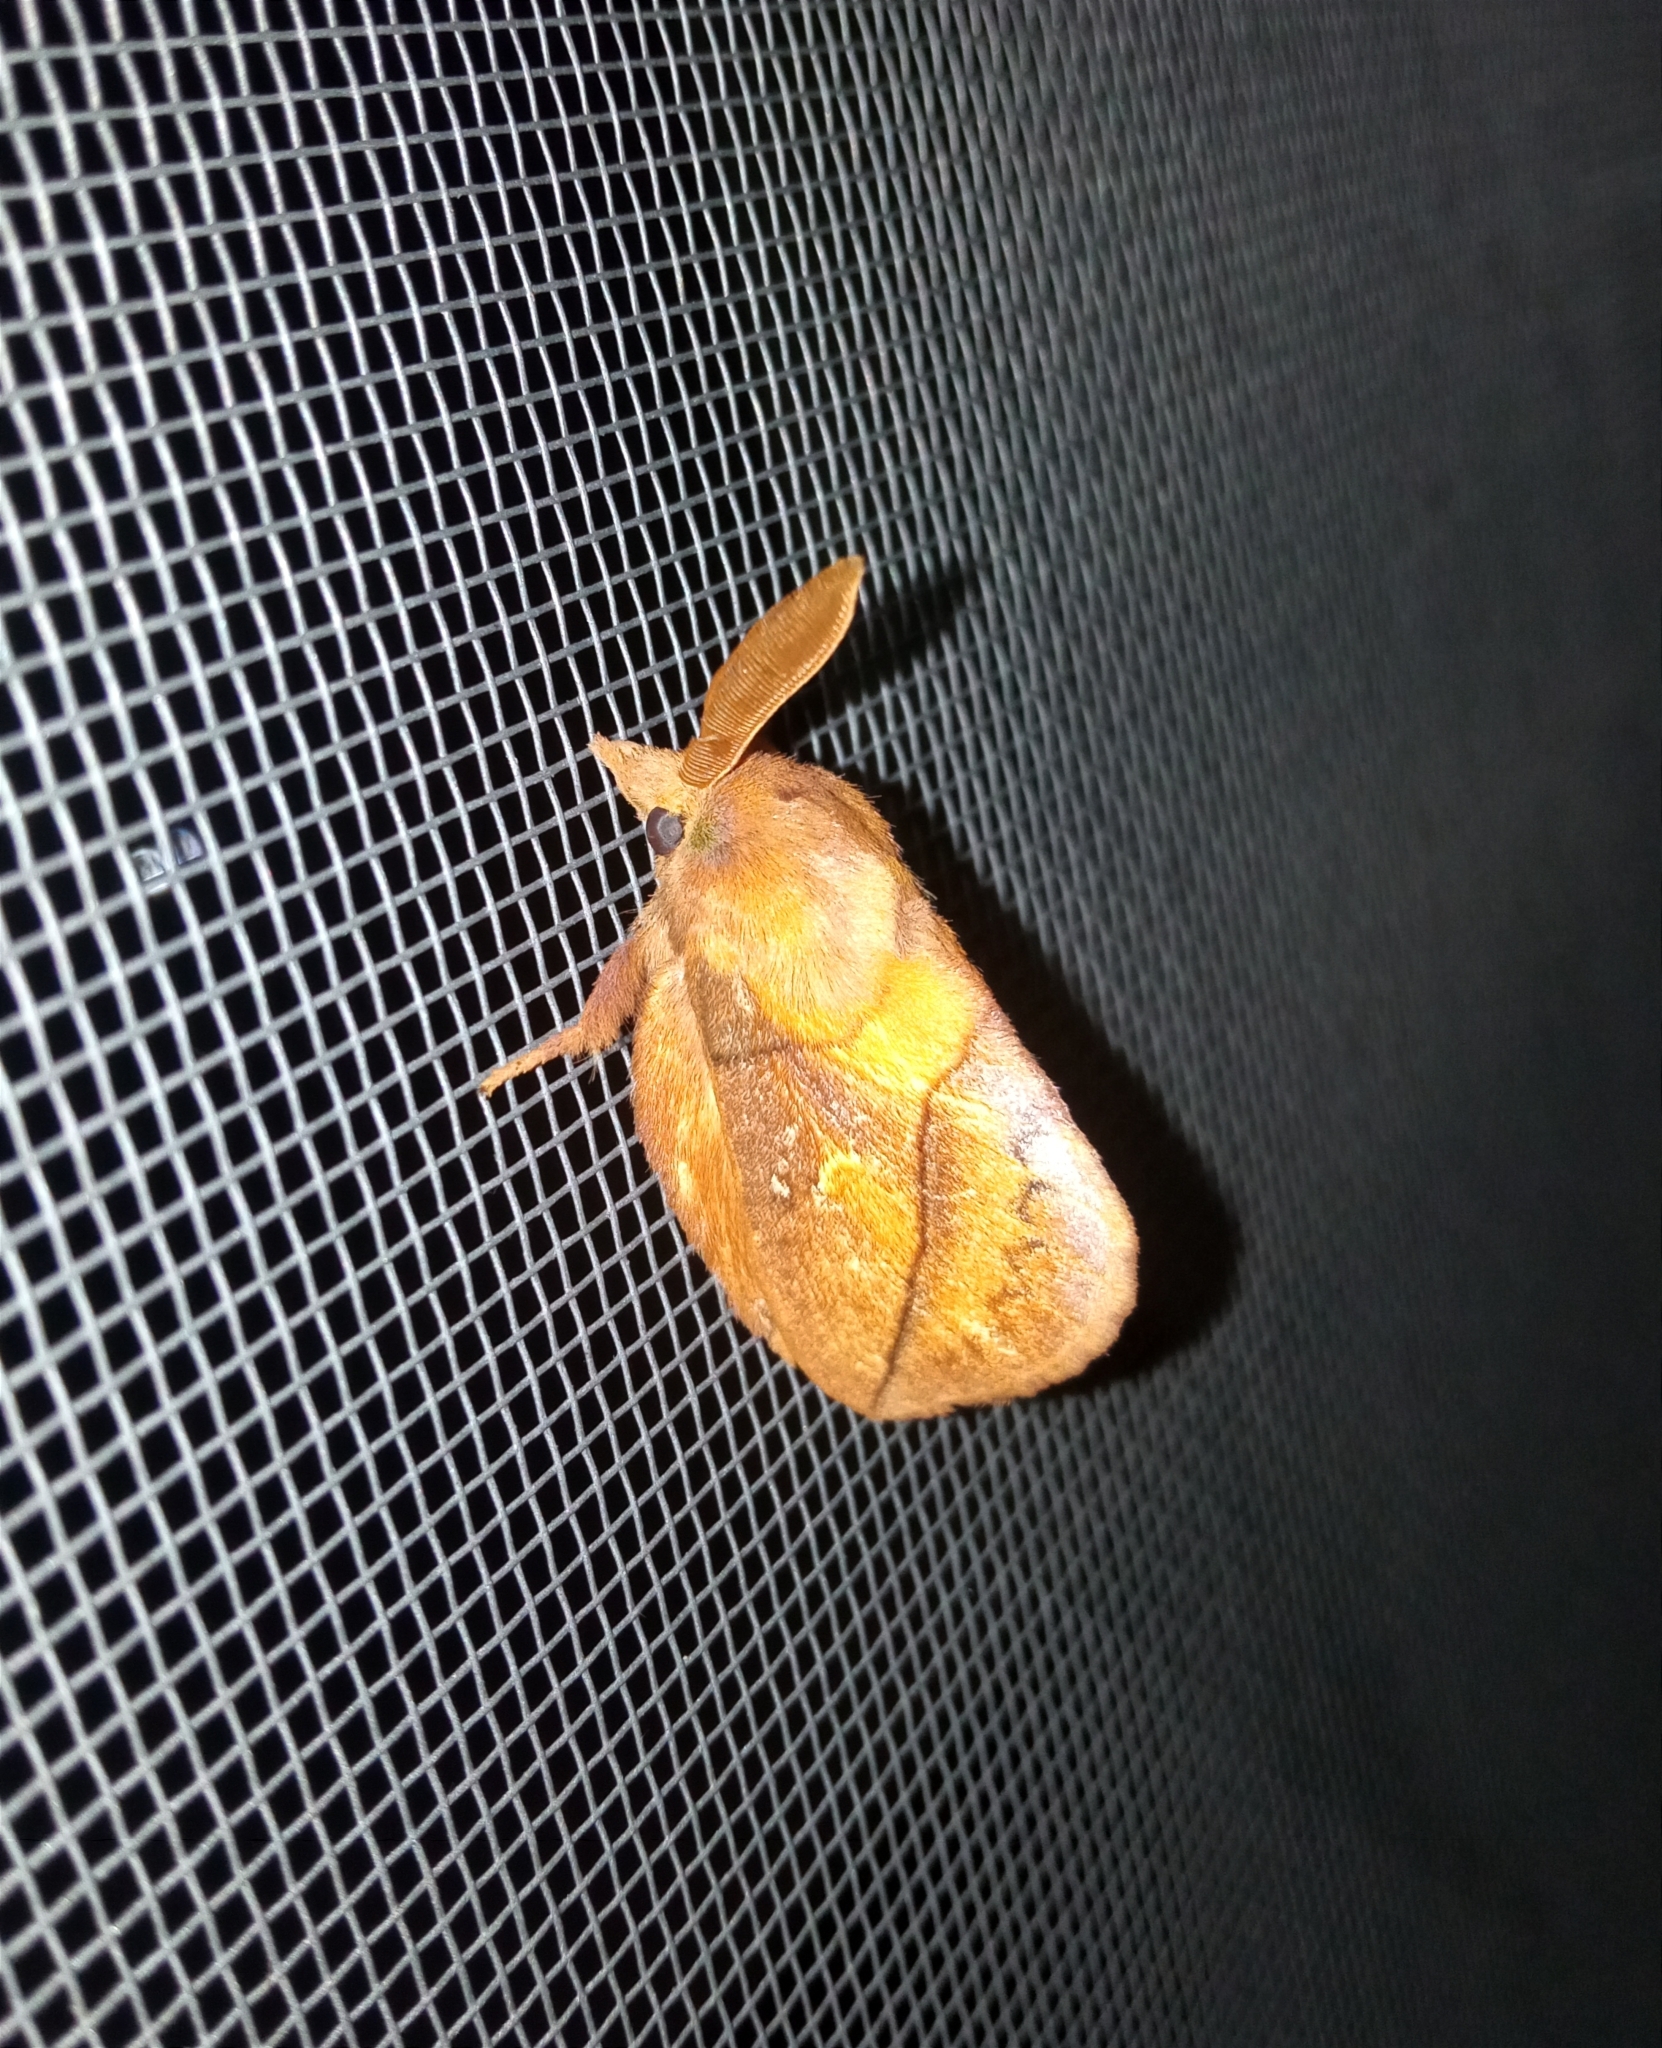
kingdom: Animalia
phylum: Arthropoda
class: Insecta
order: Lepidoptera
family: Lasiocampidae
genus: Euthrix
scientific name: Euthrix potatoria
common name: Drinker
